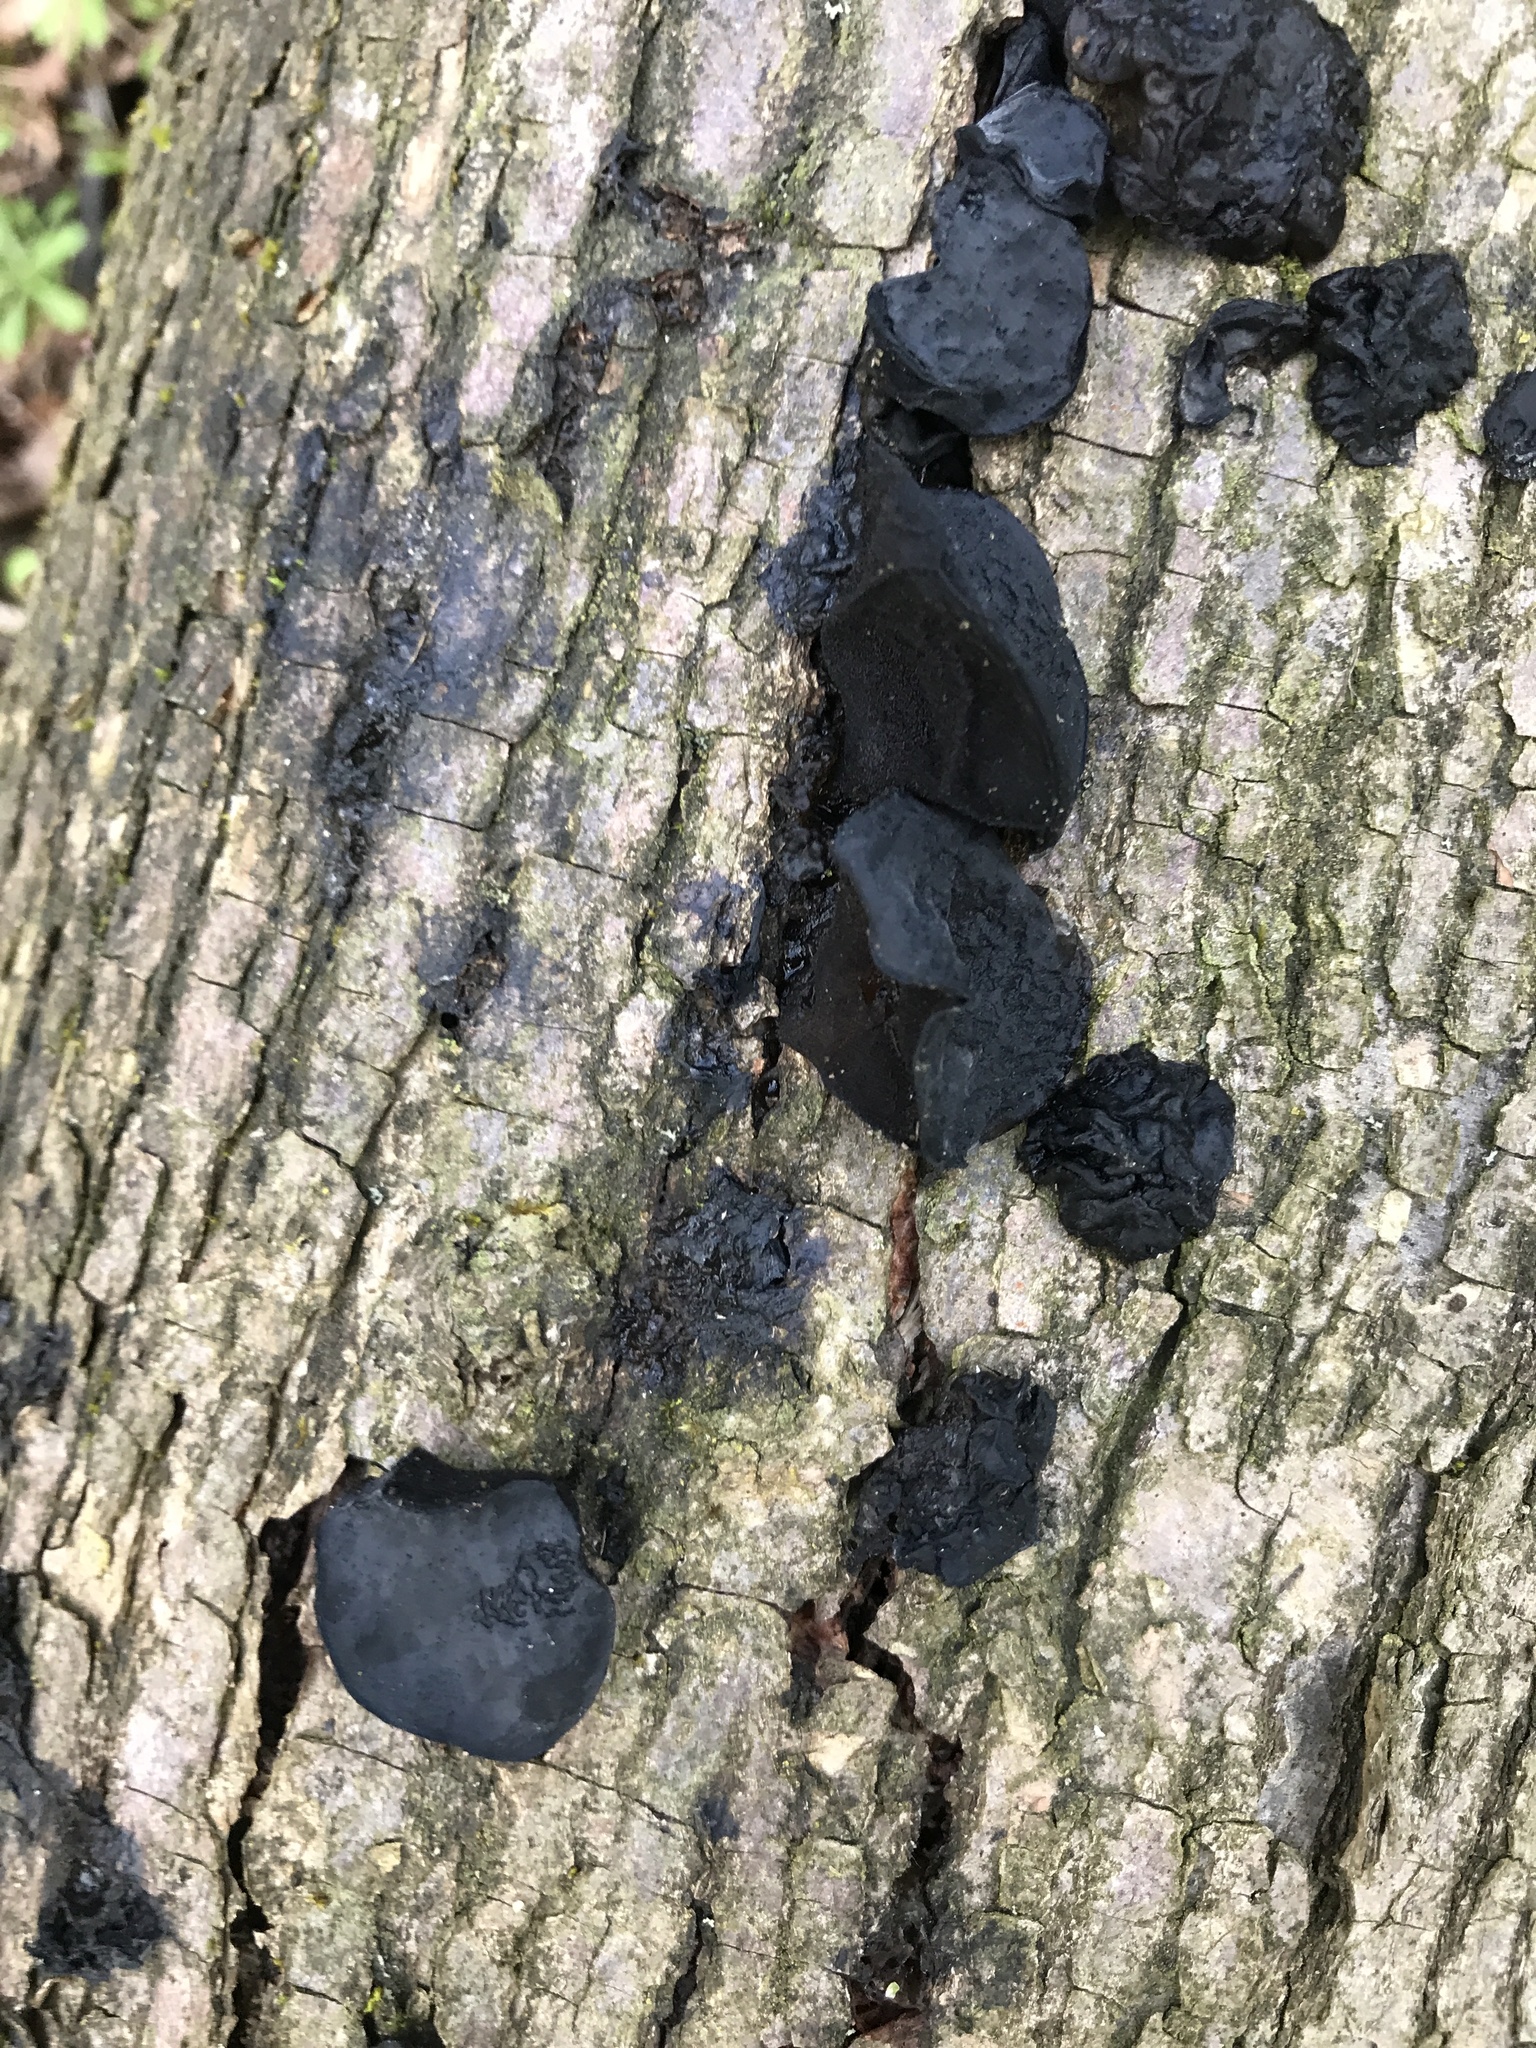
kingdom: Fungi
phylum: Basidiomycota
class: Agaricomycetes
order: Auriculariales
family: Auriculariaceae
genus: Exidia
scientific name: Exidia glandulosa
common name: Witches' butter
